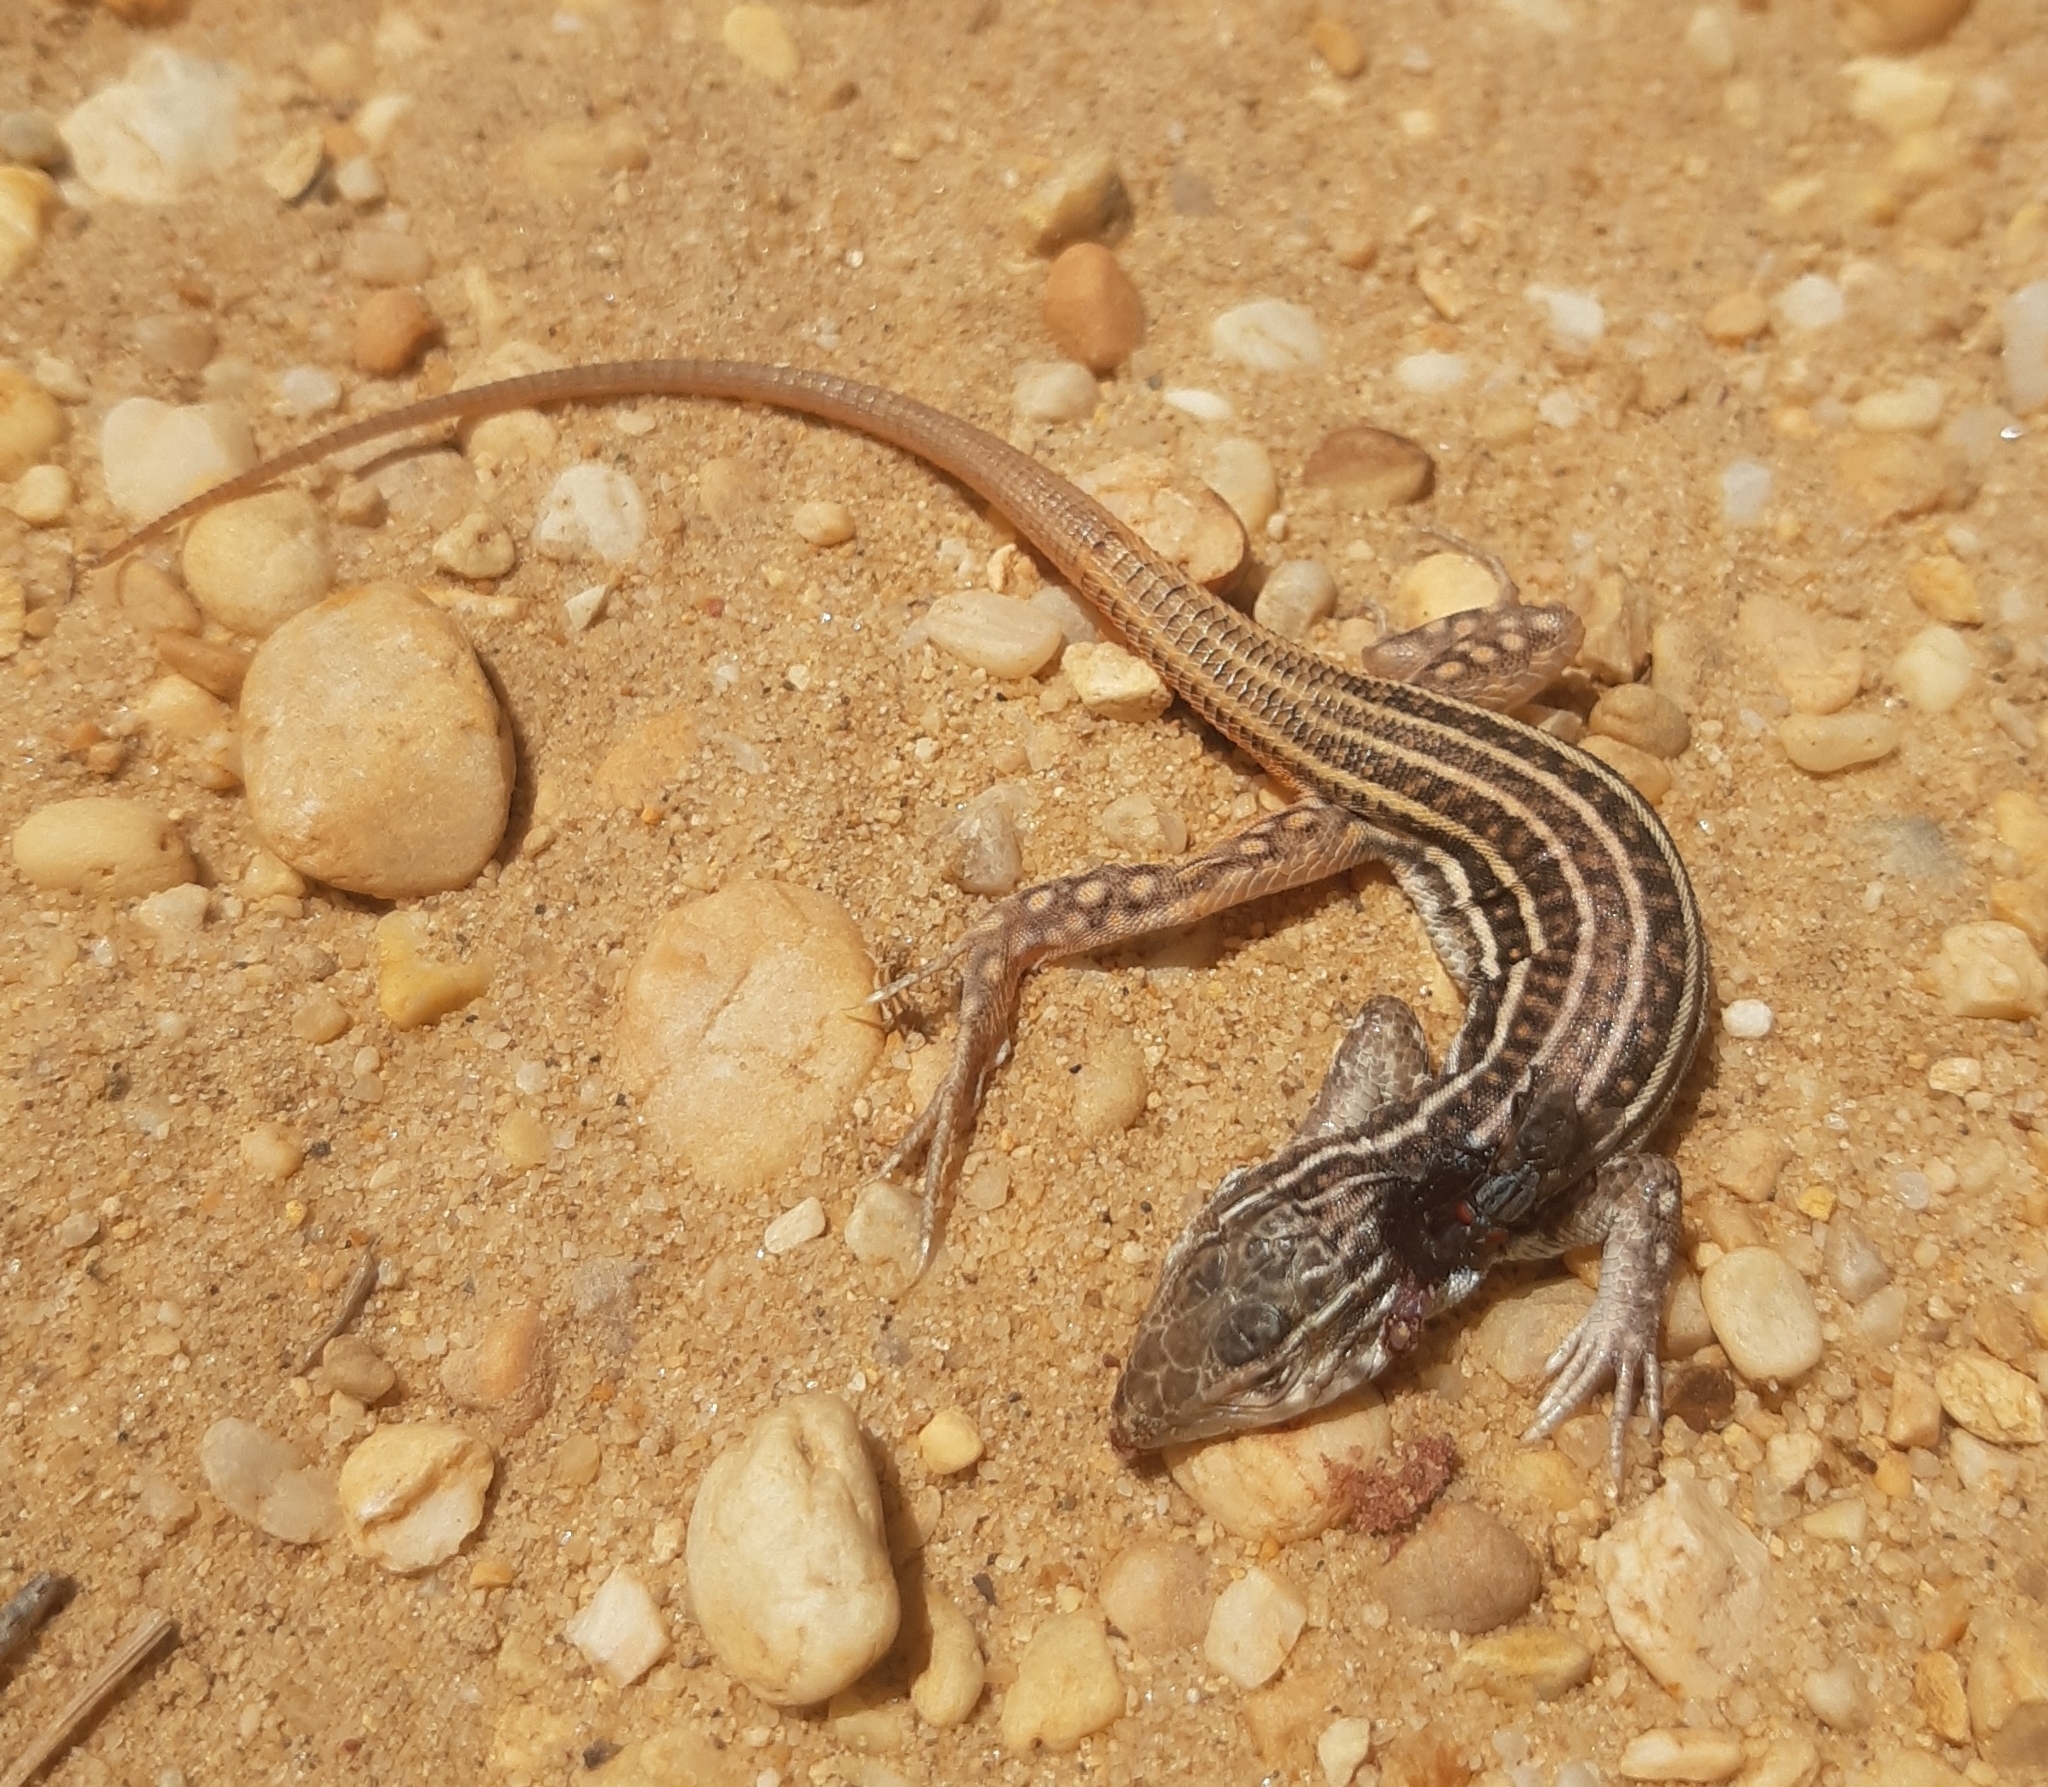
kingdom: Animalia
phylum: Chordata
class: Squamata
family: Lacertidae
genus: Acanthodactylus
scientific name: Acanthodactylus erythrurus
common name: Spiny-footed lizard
